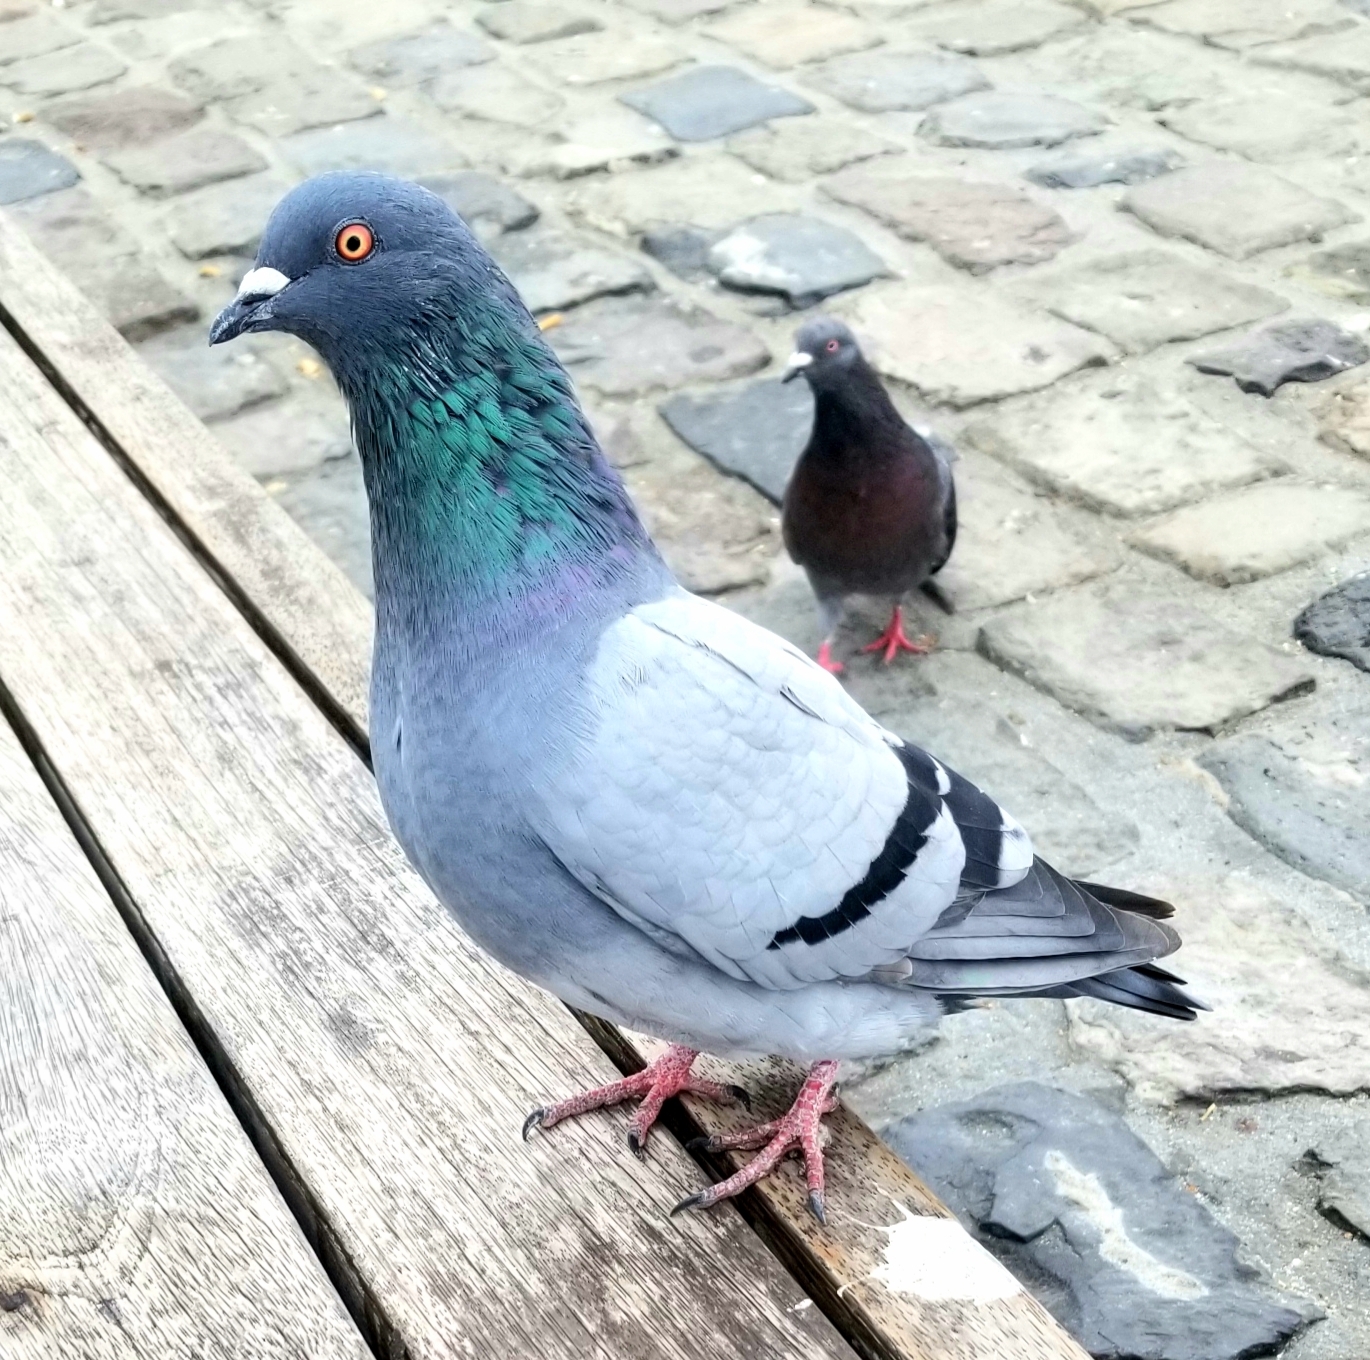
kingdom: Animalia
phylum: Chordata
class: Aves
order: Columbiformes
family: Columbidae
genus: Columba
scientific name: Columba livia
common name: Rock pigeon
